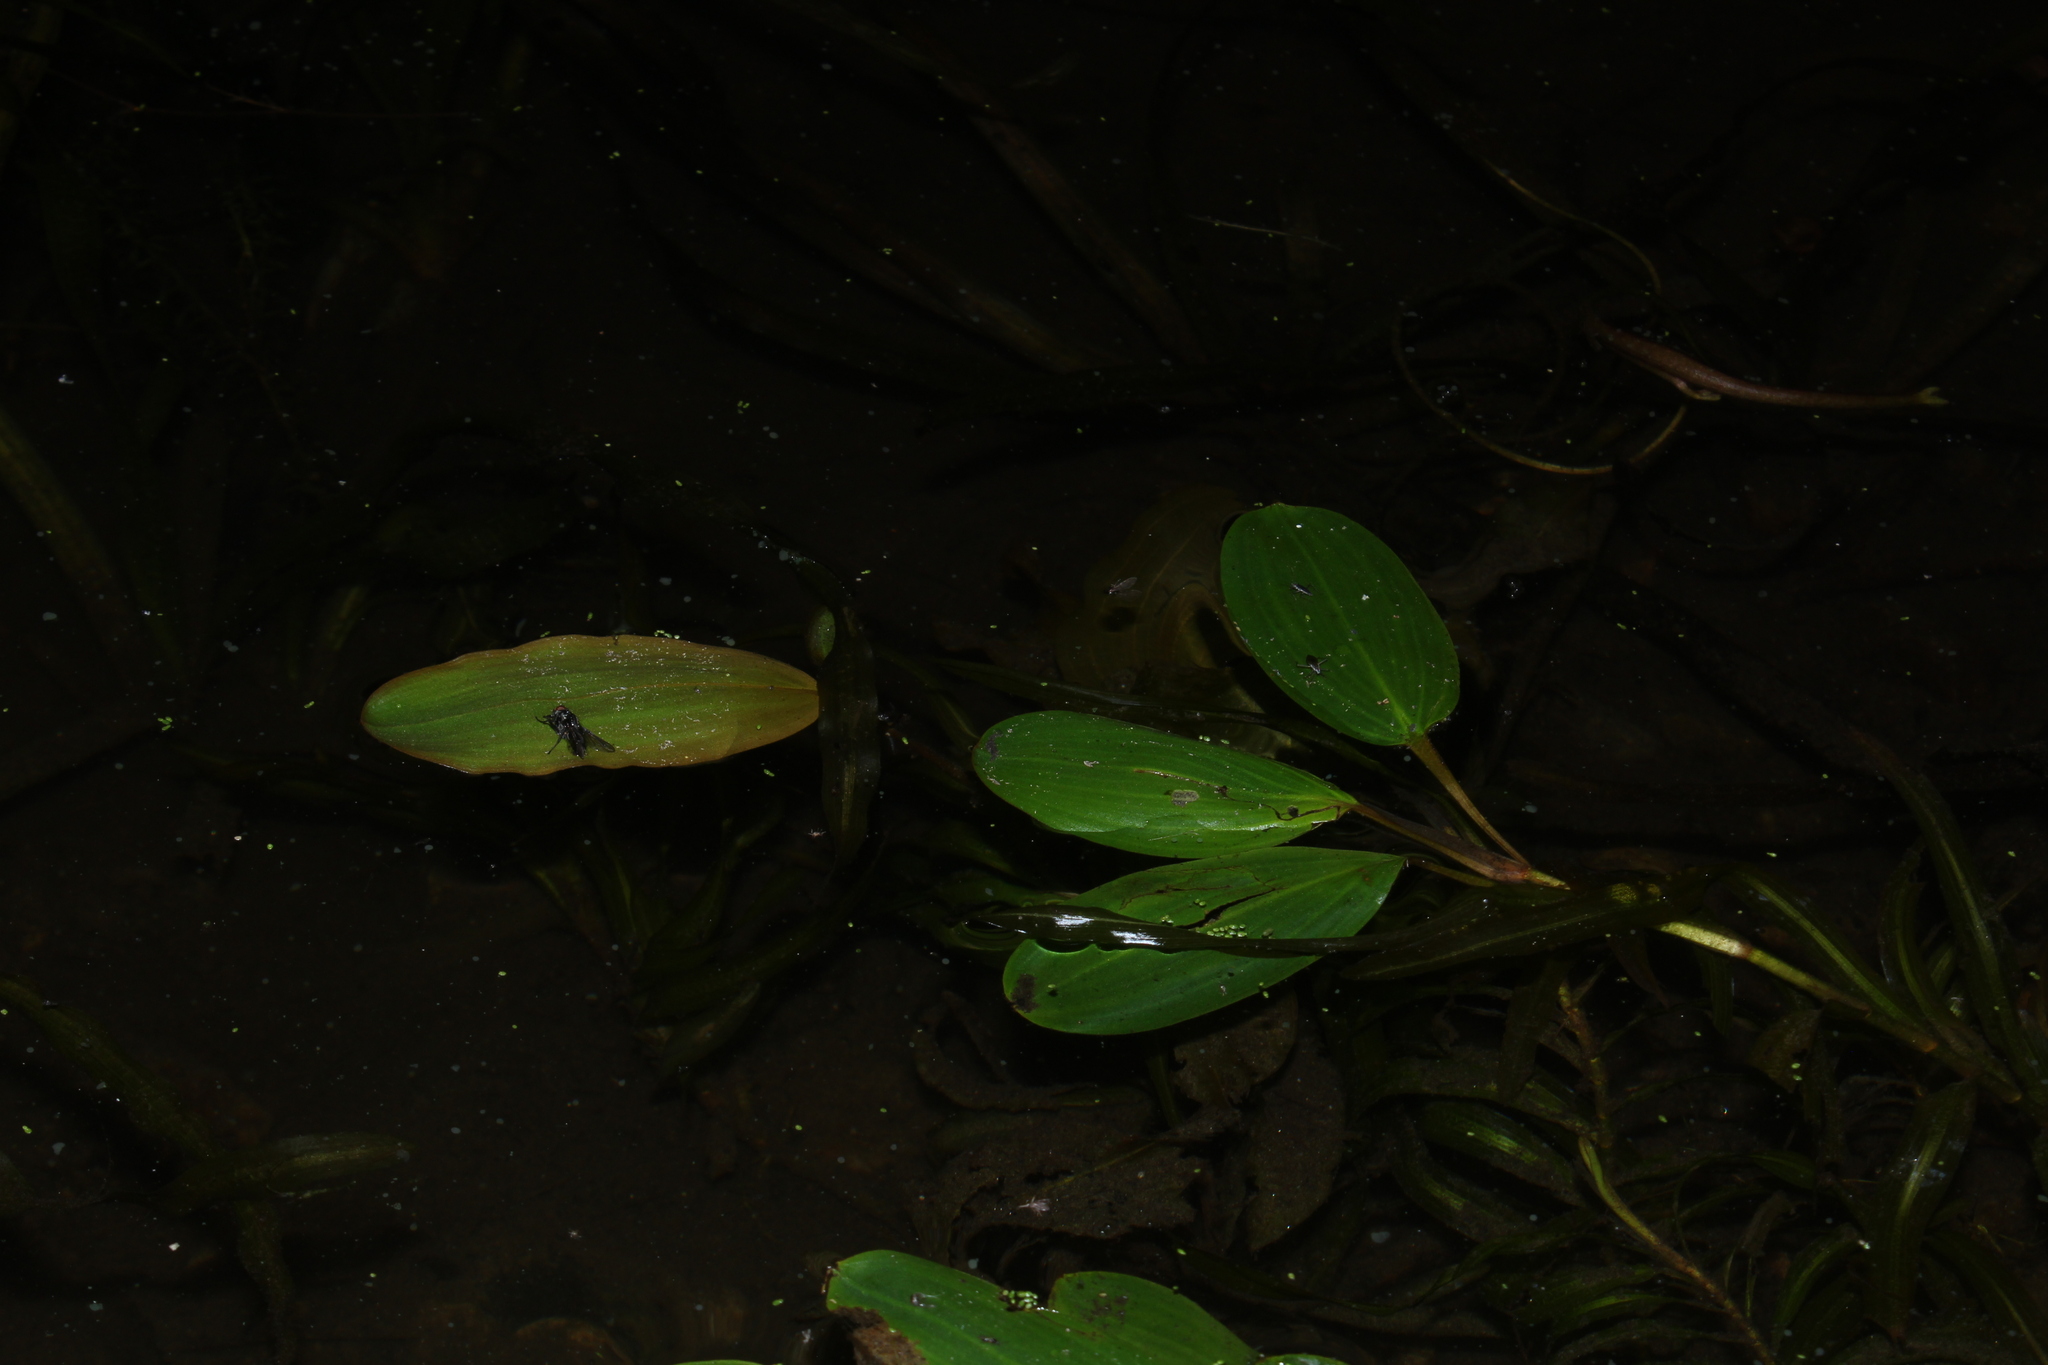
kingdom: Plantae
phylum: Tracheophyta
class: Liliopsida
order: Alismatales
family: Potamogetonaceae
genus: Potamogeton
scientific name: Potamogeton epihydrus
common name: American pondweed
